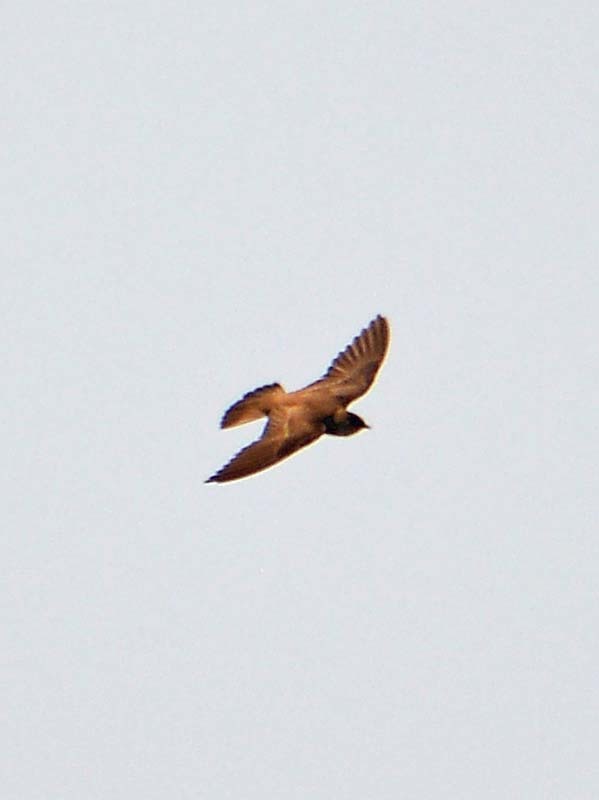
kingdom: Animalia
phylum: Chordata
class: Aves
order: Passeriformes
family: Hirundinidae
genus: Stelgidopteryx
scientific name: Stelgidopteryx serripennis
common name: Northern rough-winged swallow
